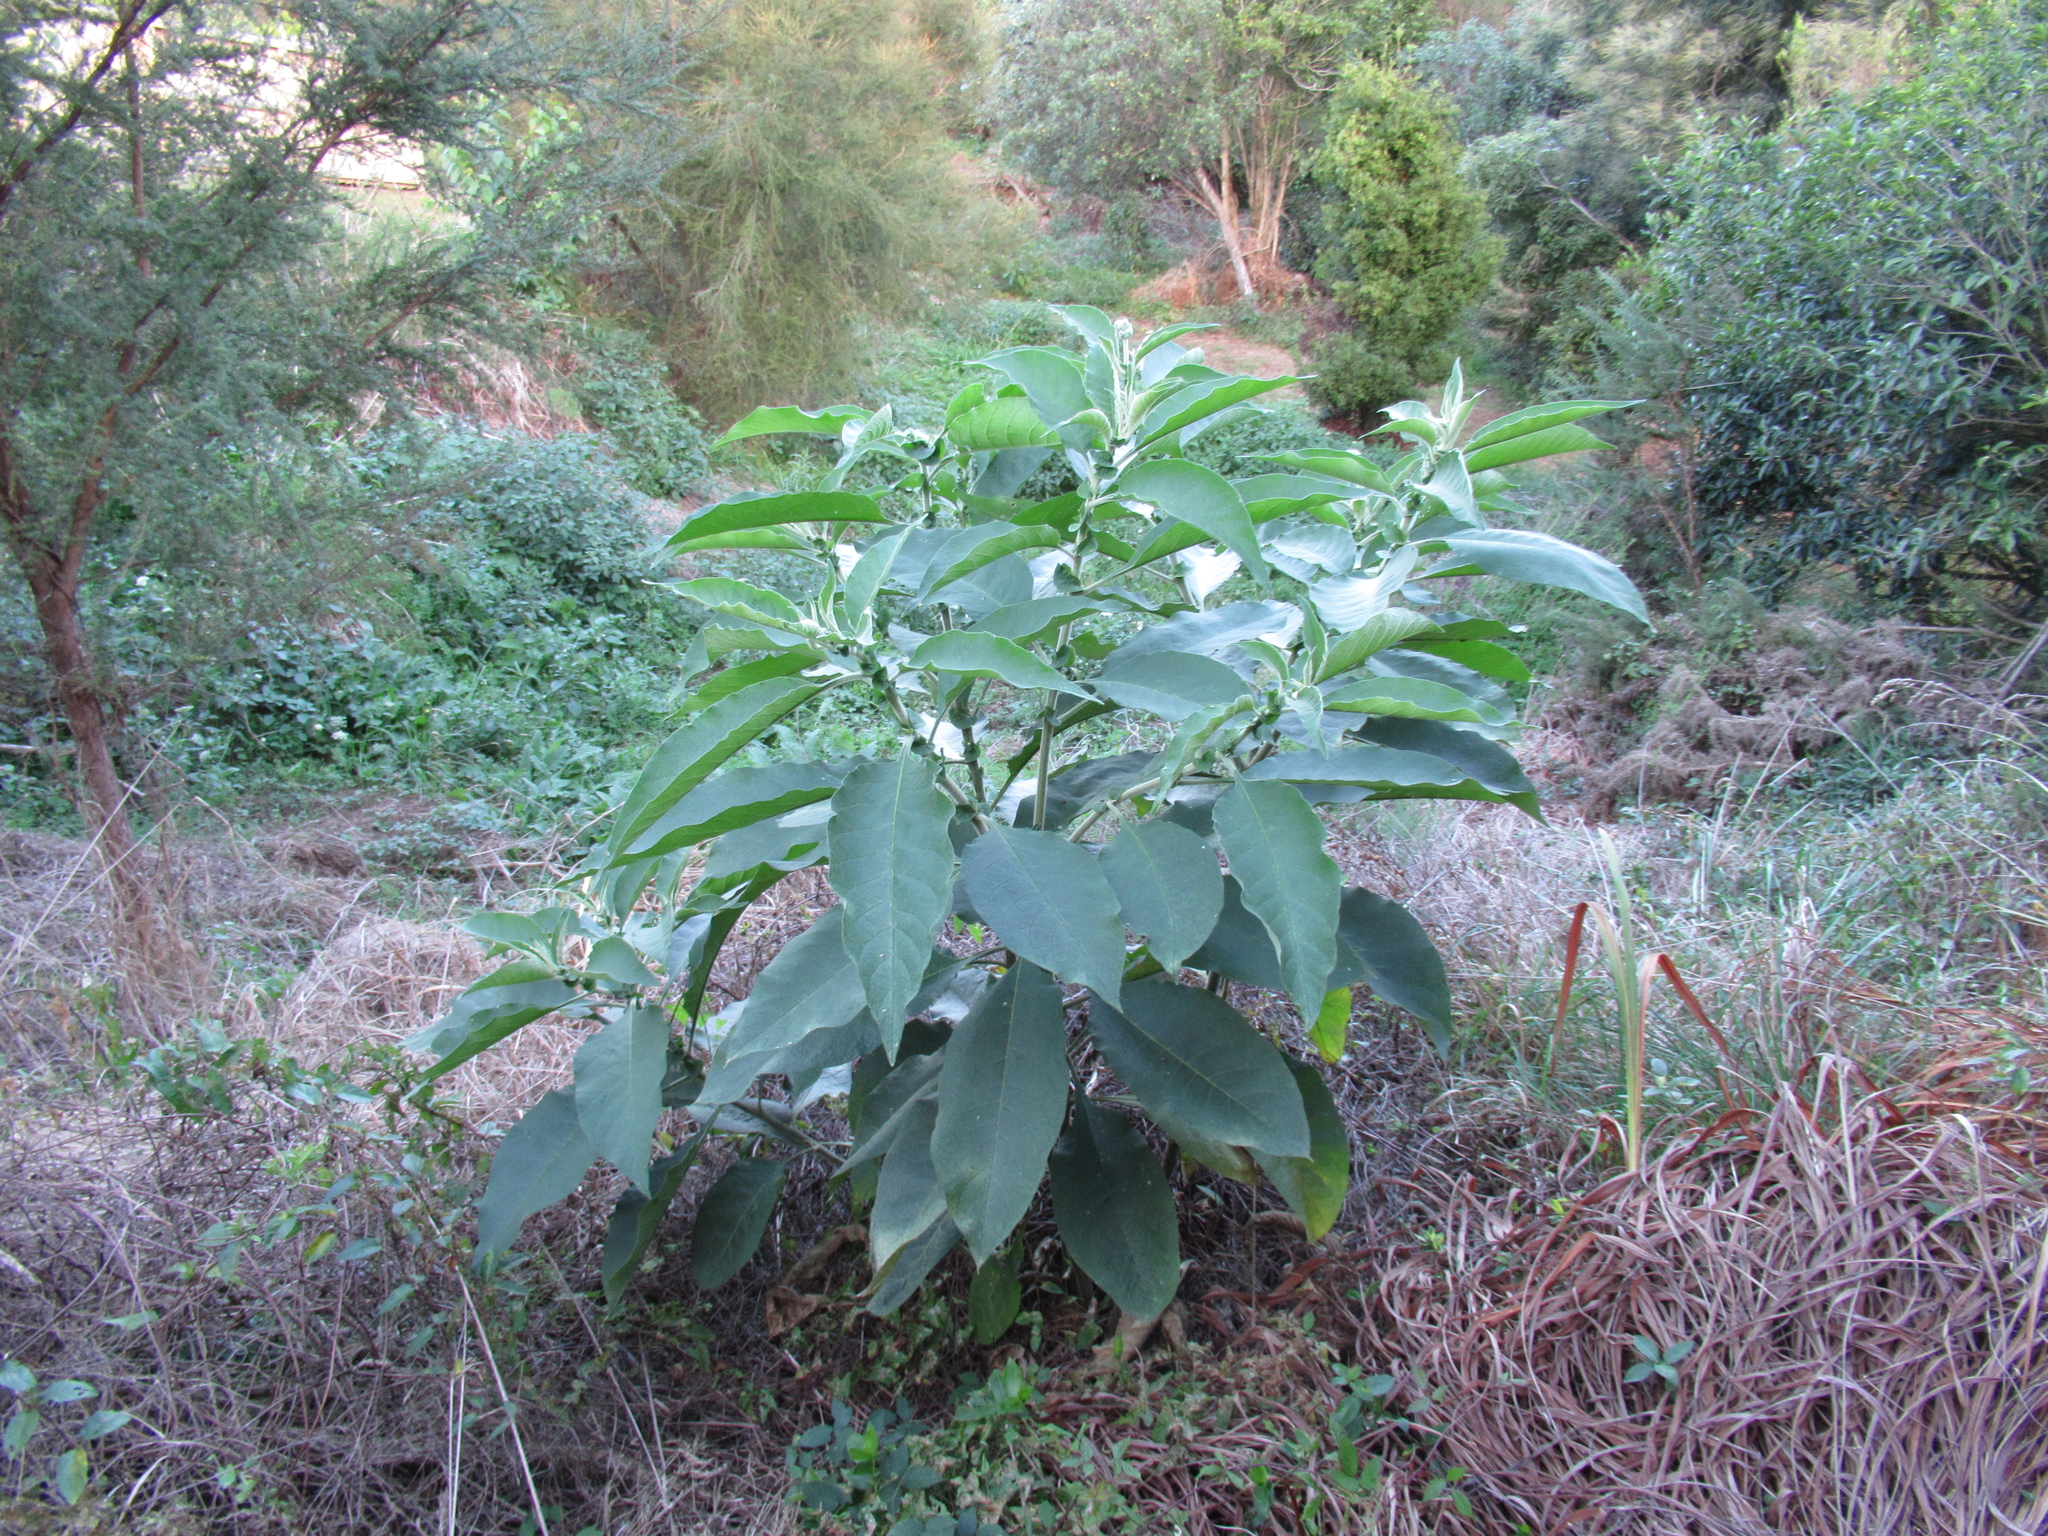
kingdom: Animalia
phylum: Arthropoda
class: Insecta
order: Hemiptera
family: Tingidae
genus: Gargaphia
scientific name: Gargaphia decoris
